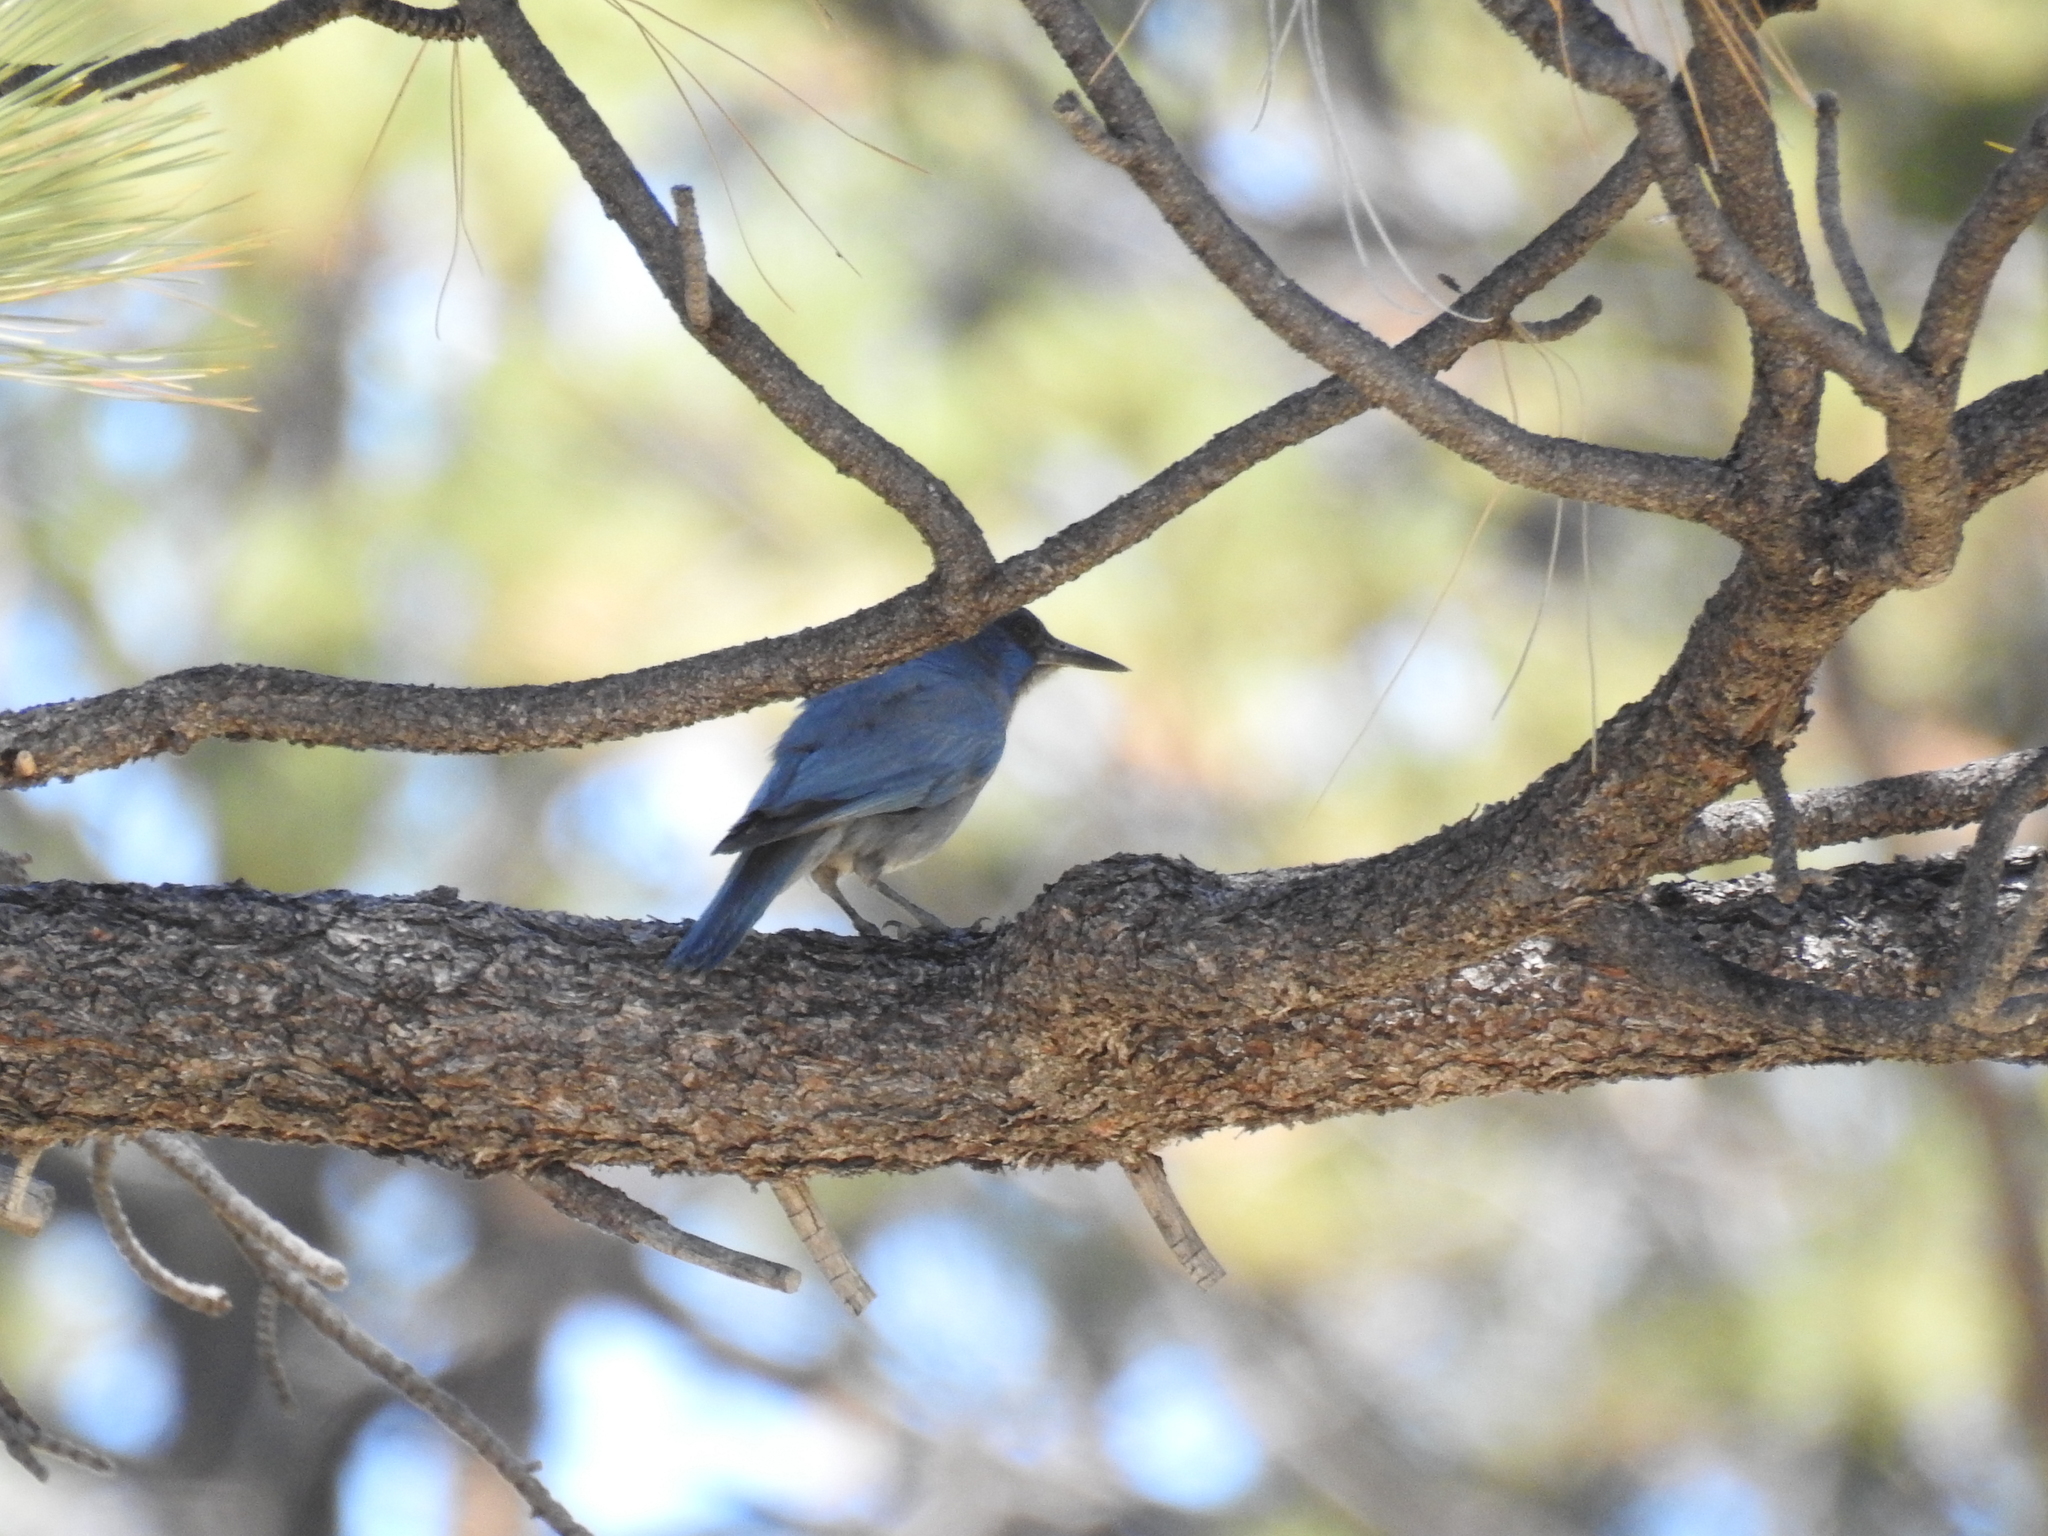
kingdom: Animalia
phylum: Chordata
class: Aves
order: Passeriformes
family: Corvidae
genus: Gymnorhinus
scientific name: Gymnorhinus cyanocephalus
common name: Pinyon jay
